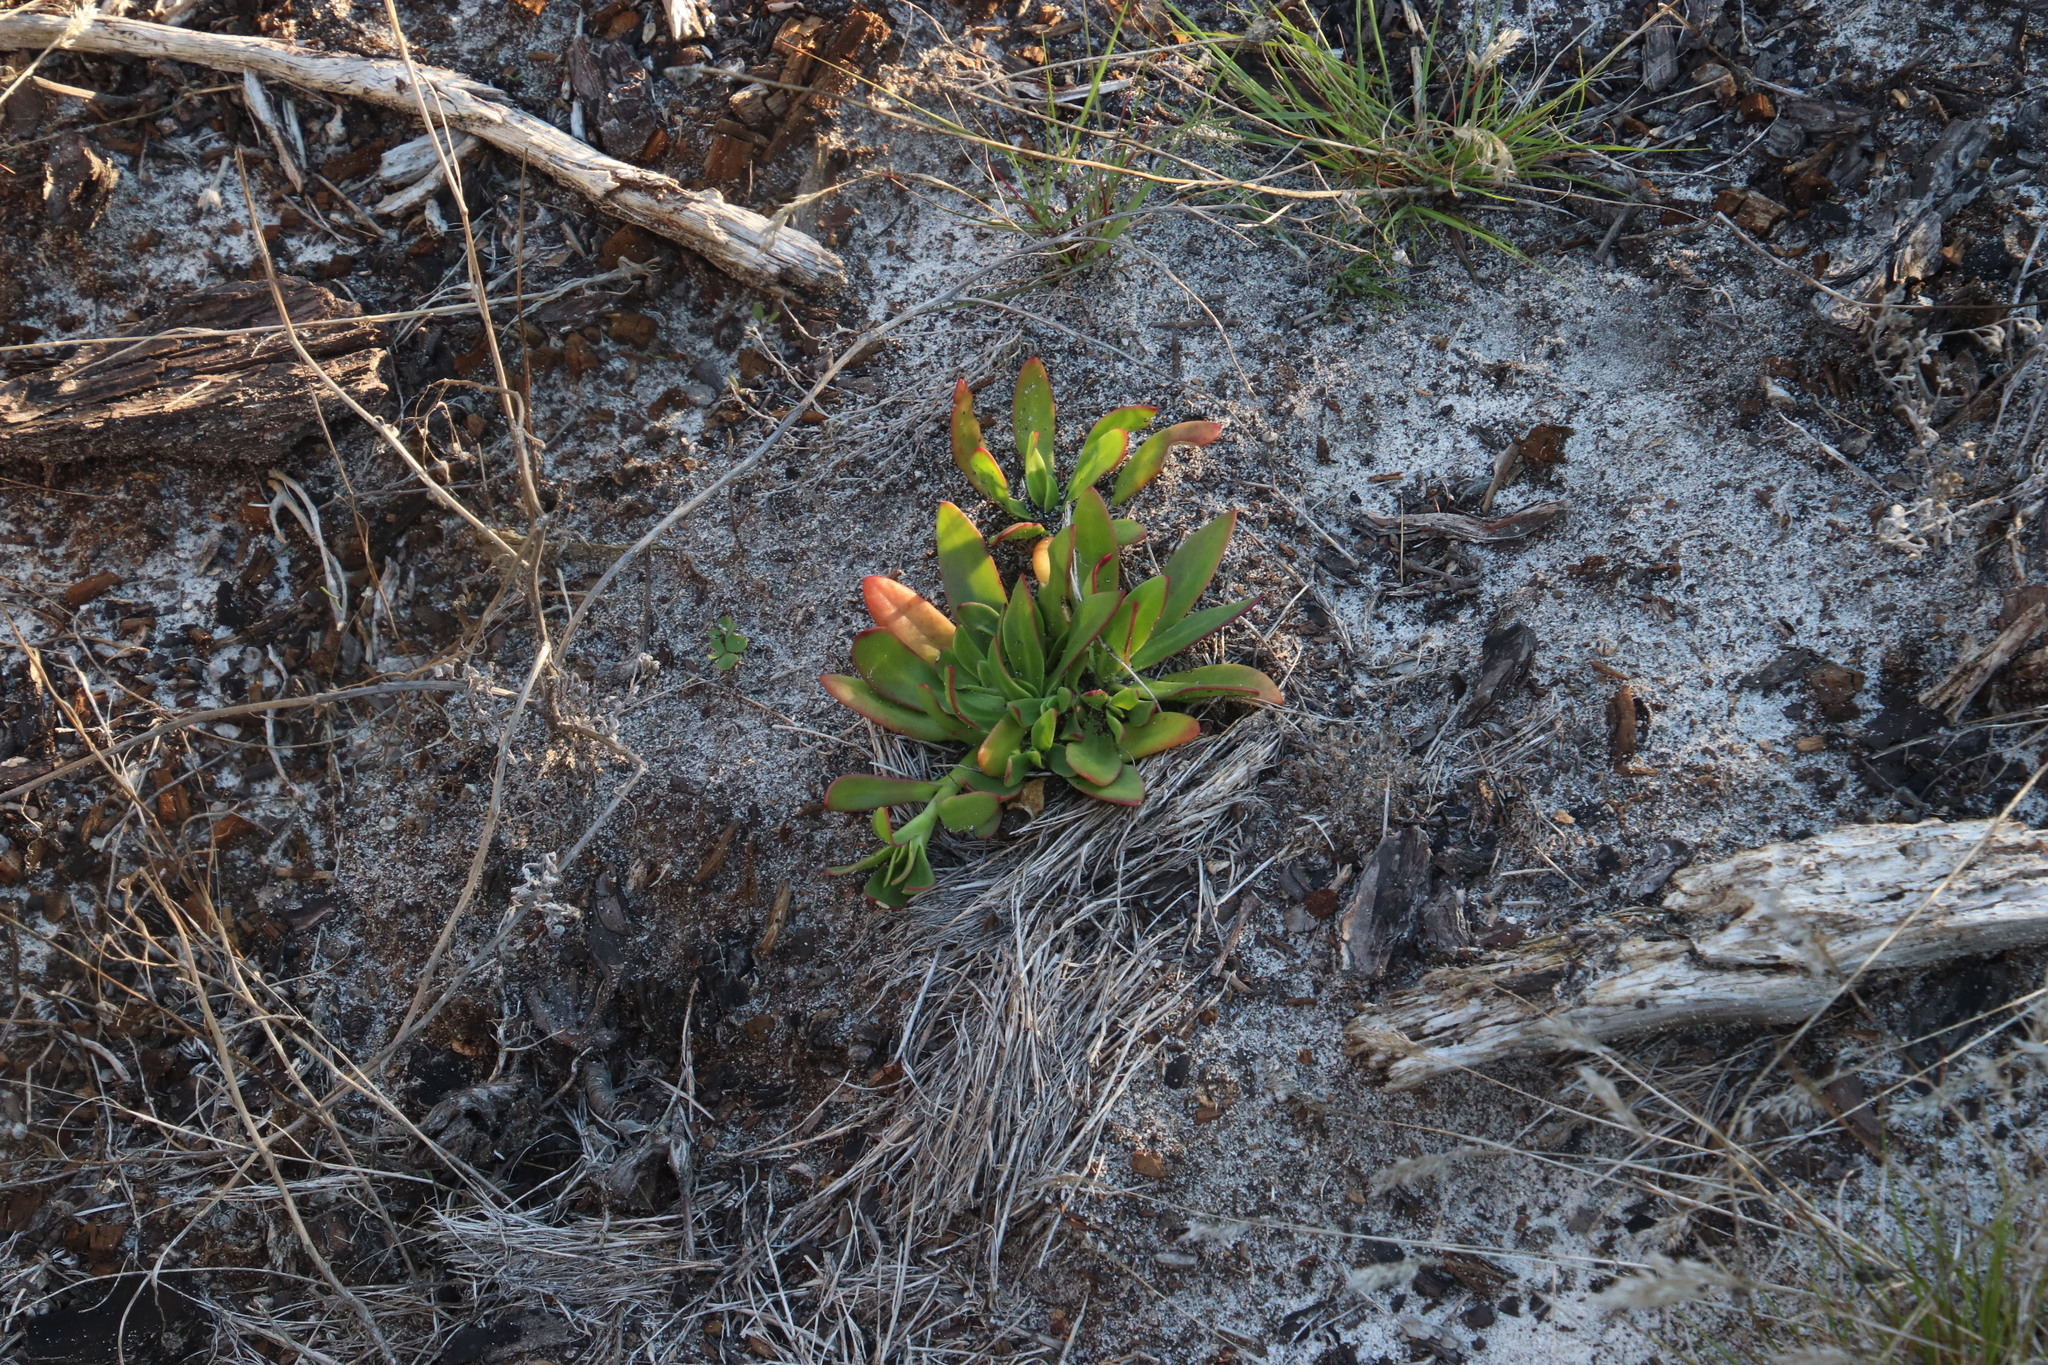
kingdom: Plantae
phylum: Tracheophyta
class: Magnoliopsida
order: Caryophyllales
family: Aizoaceae
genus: Skiatophytum
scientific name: Skiatophytum tripolium
